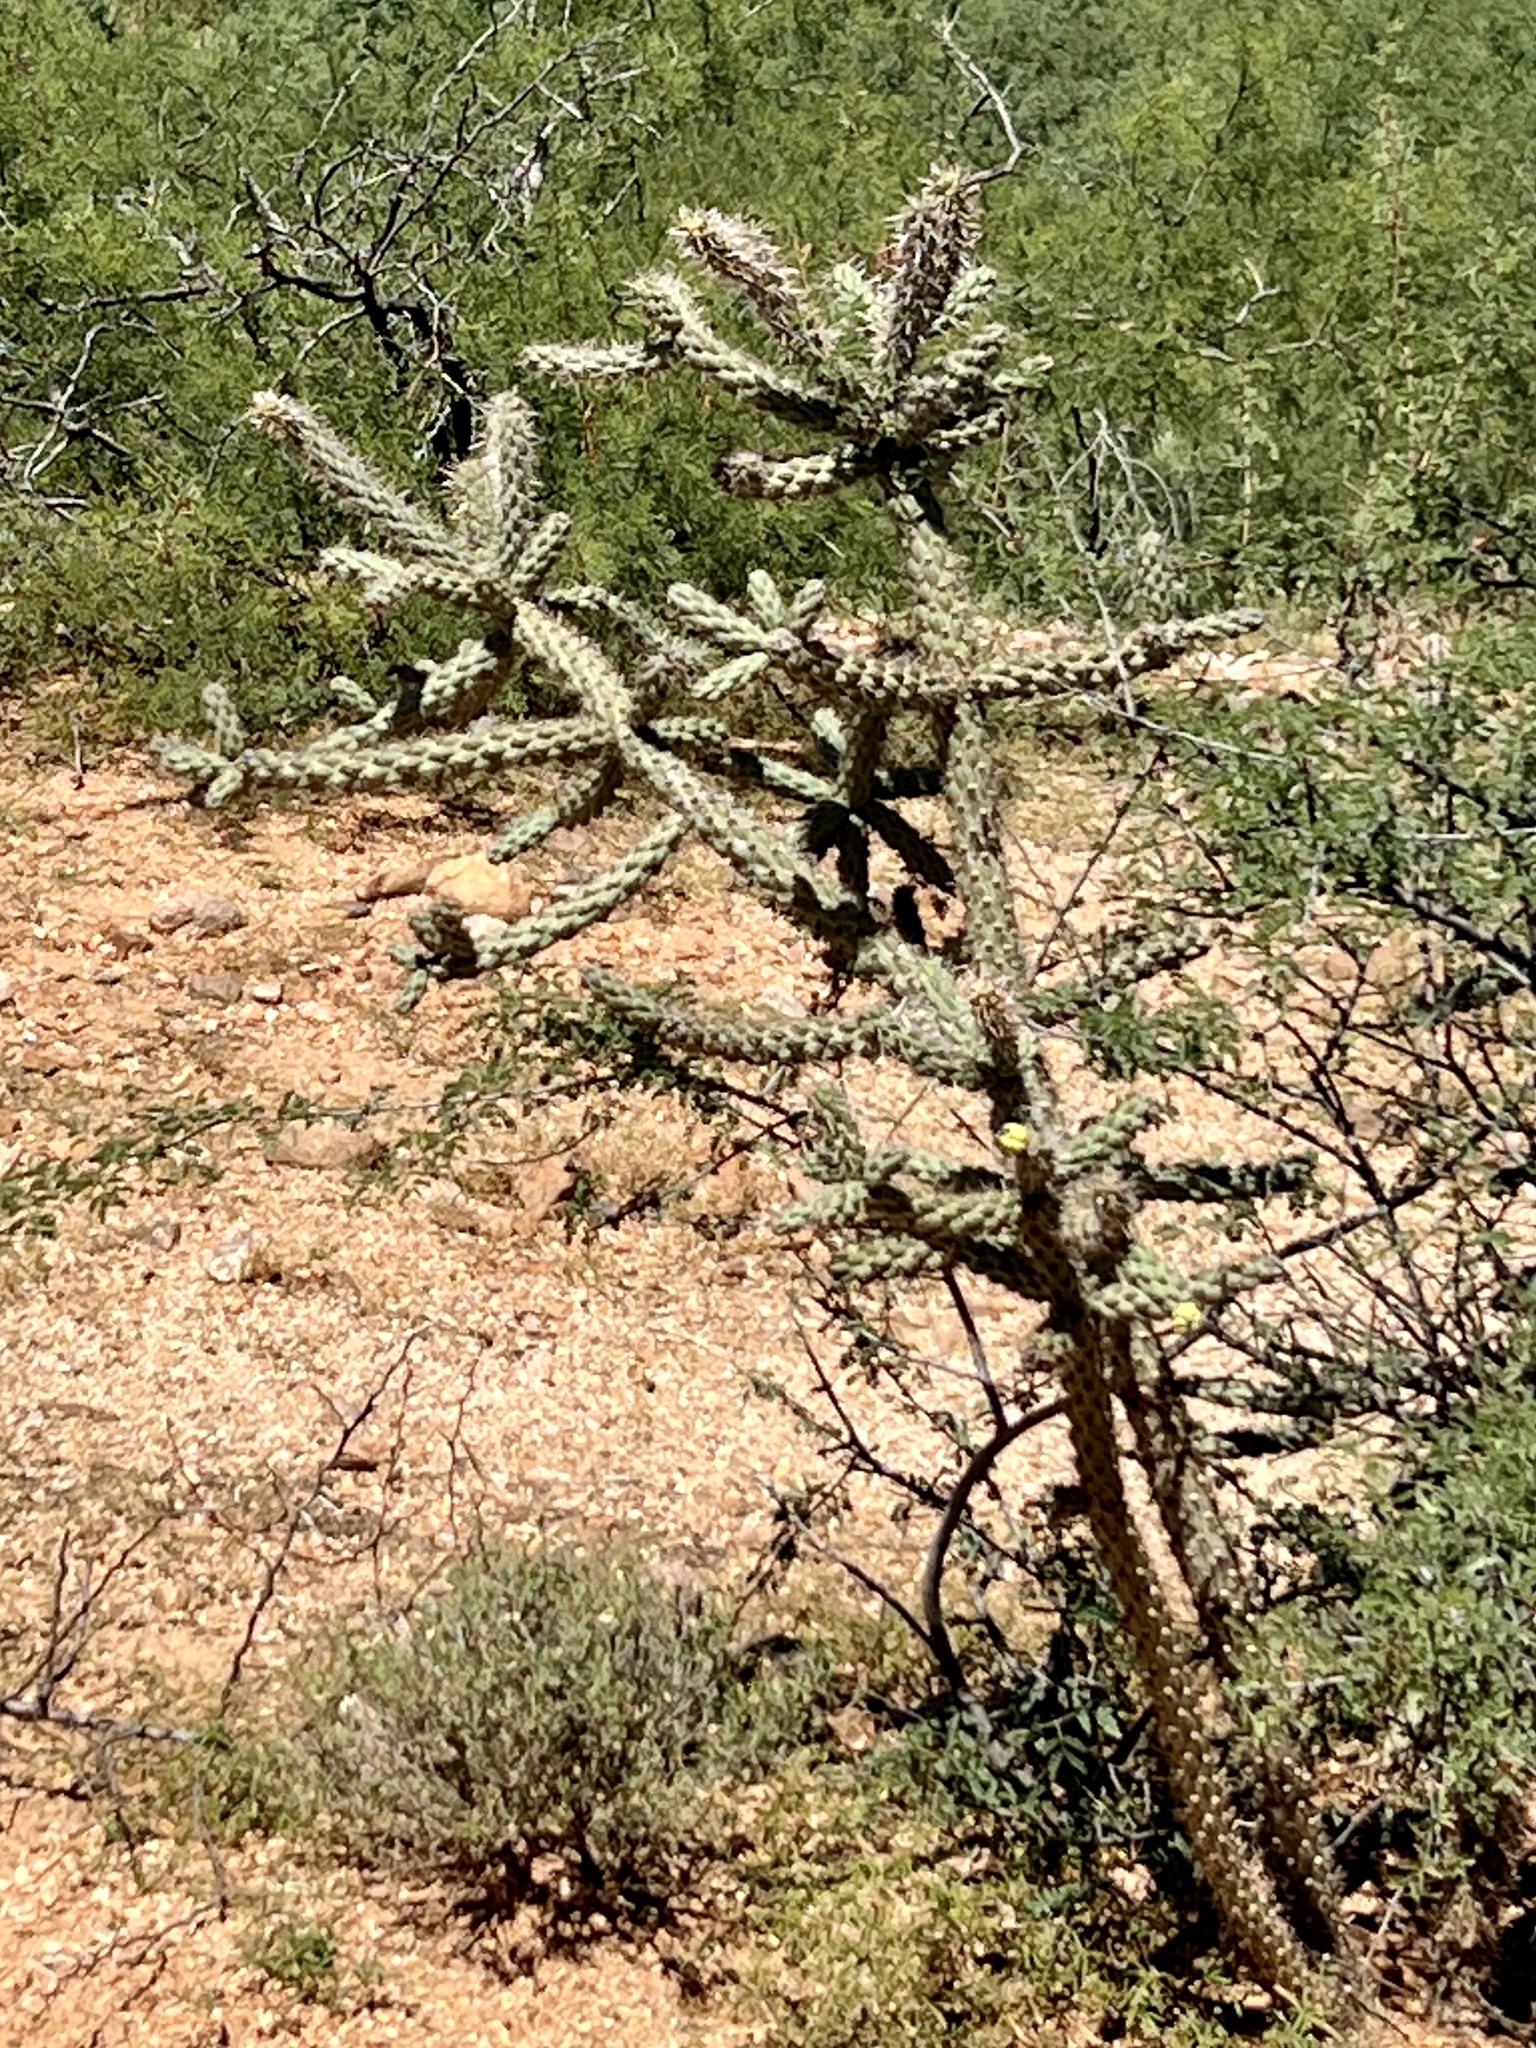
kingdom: Plantae
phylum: Tracheophyta
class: Magnoliopsida
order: Caryophyllales
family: Cactaceae
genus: Cylindropuntia
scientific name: Cylindropuntia imbricata
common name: Candelabrum cactus
